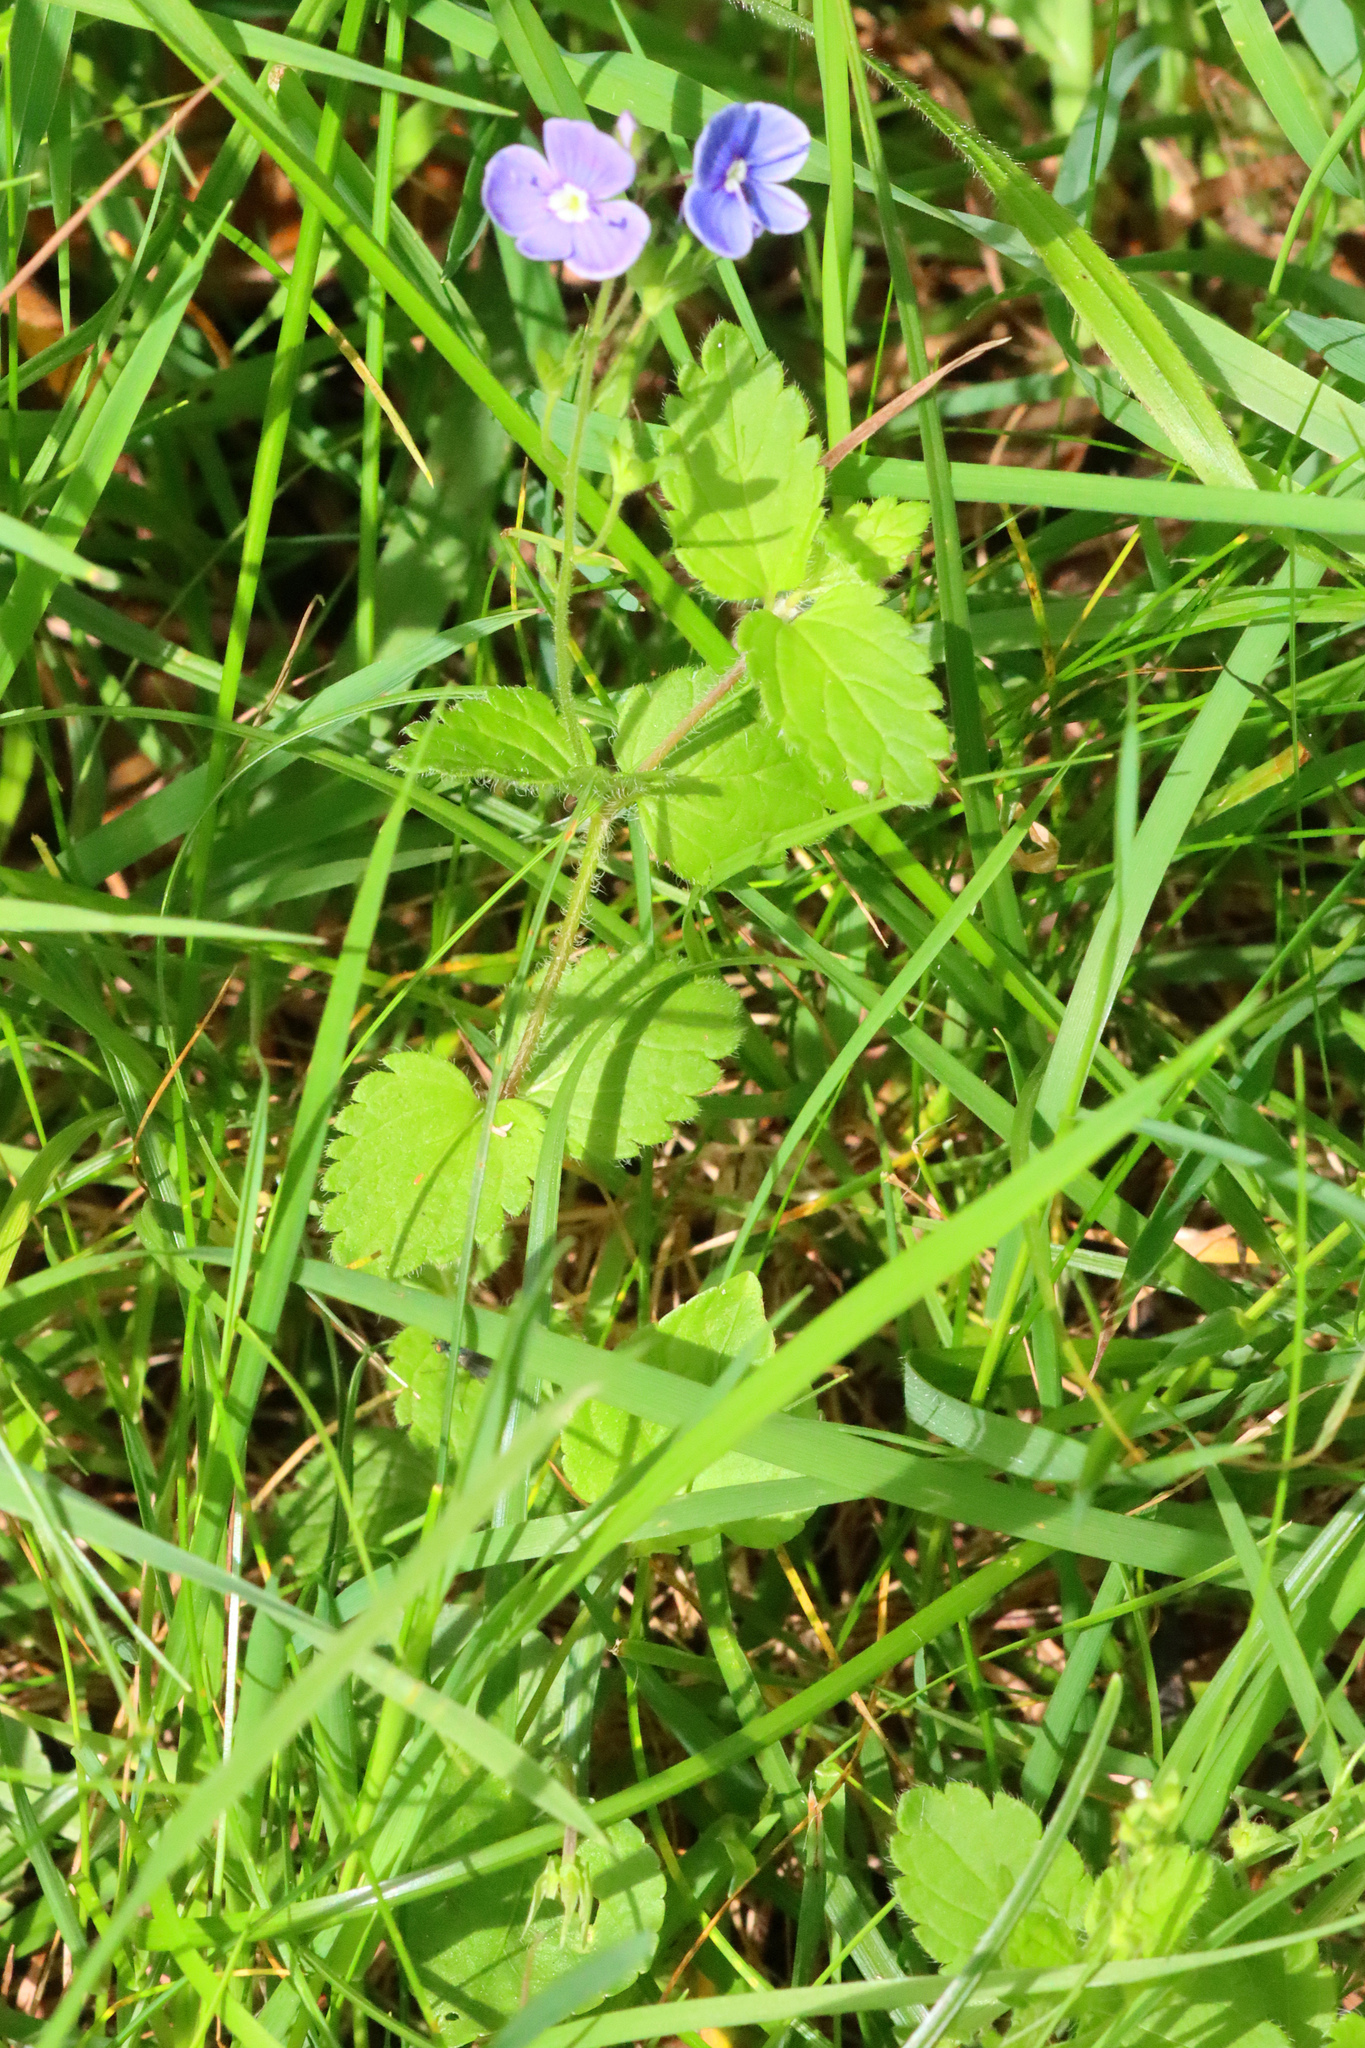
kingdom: Plantae
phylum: Tracheophyta
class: Magnoliopsida
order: Lamiales
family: Plantaginaceae
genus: Veronica
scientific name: Veronica chamaedrys
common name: Germander speedwell
